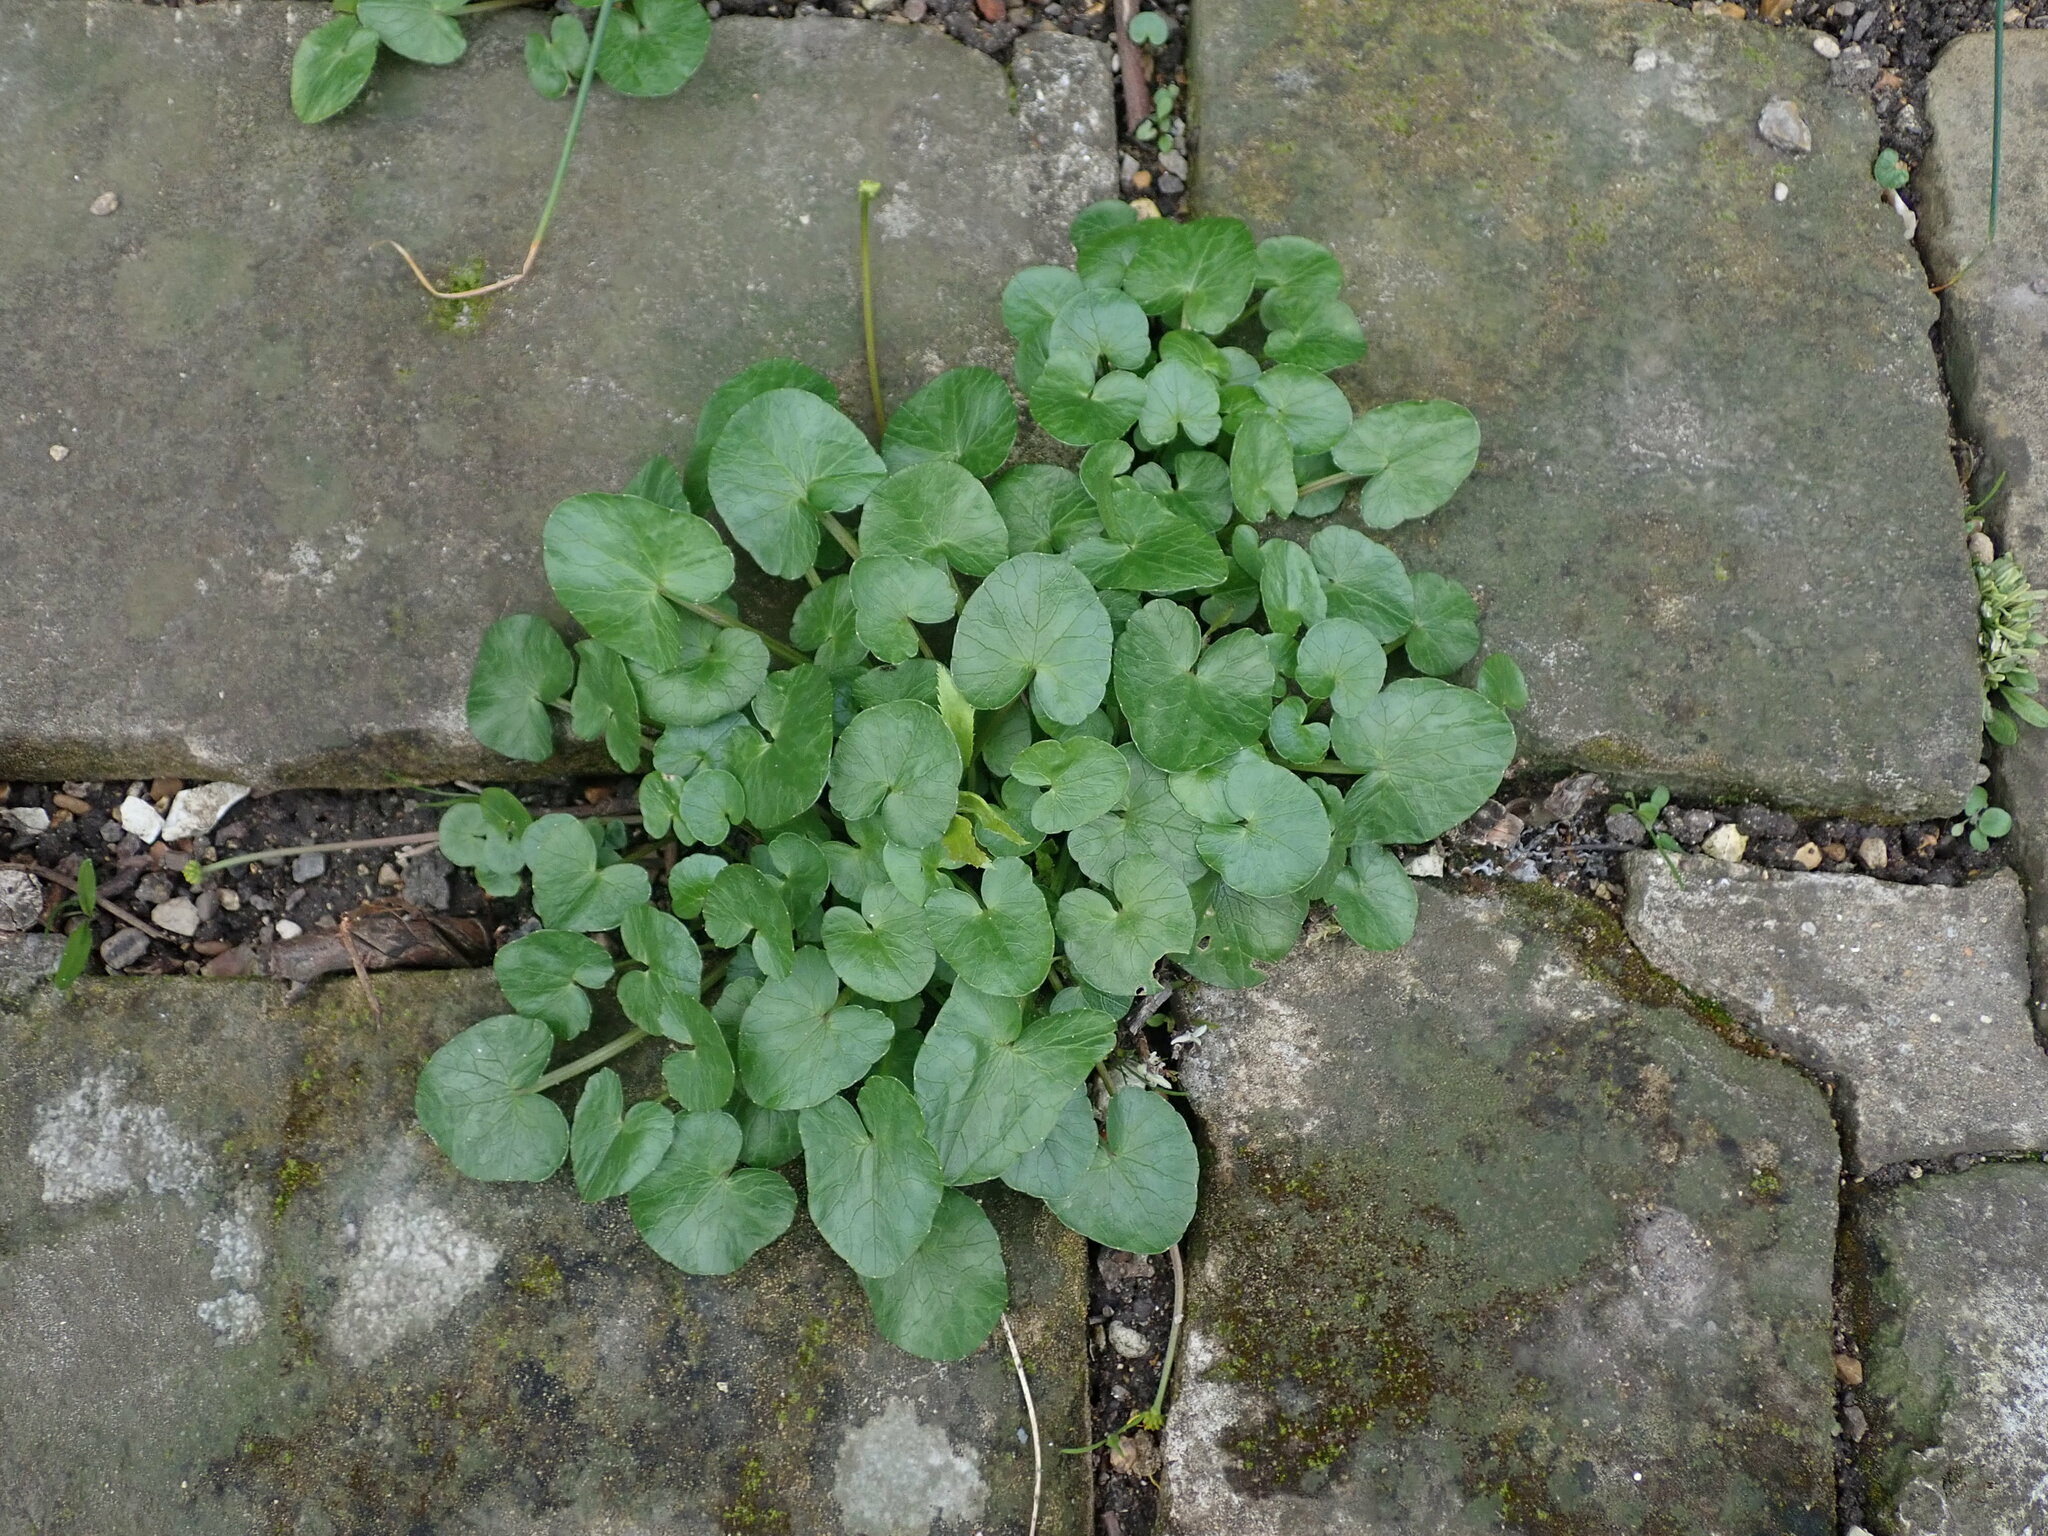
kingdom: Plantae
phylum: Tracheophyta
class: Magnoliopsida
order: Ranunculales
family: Ranunculaceae
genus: Ficaria
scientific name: Ficaria verna
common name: Lesser celandine
